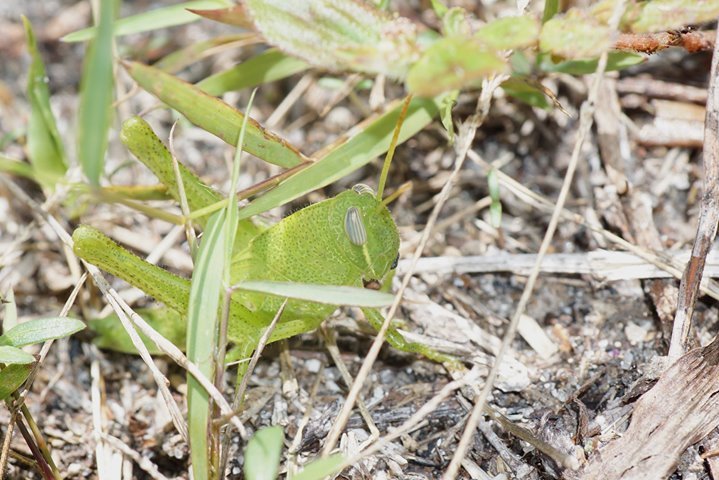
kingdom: Animalia
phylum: Arthropoda
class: Insecta
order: Orthoptera
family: Acrididae
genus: Schistocerca
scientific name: Schistocerca serialis
